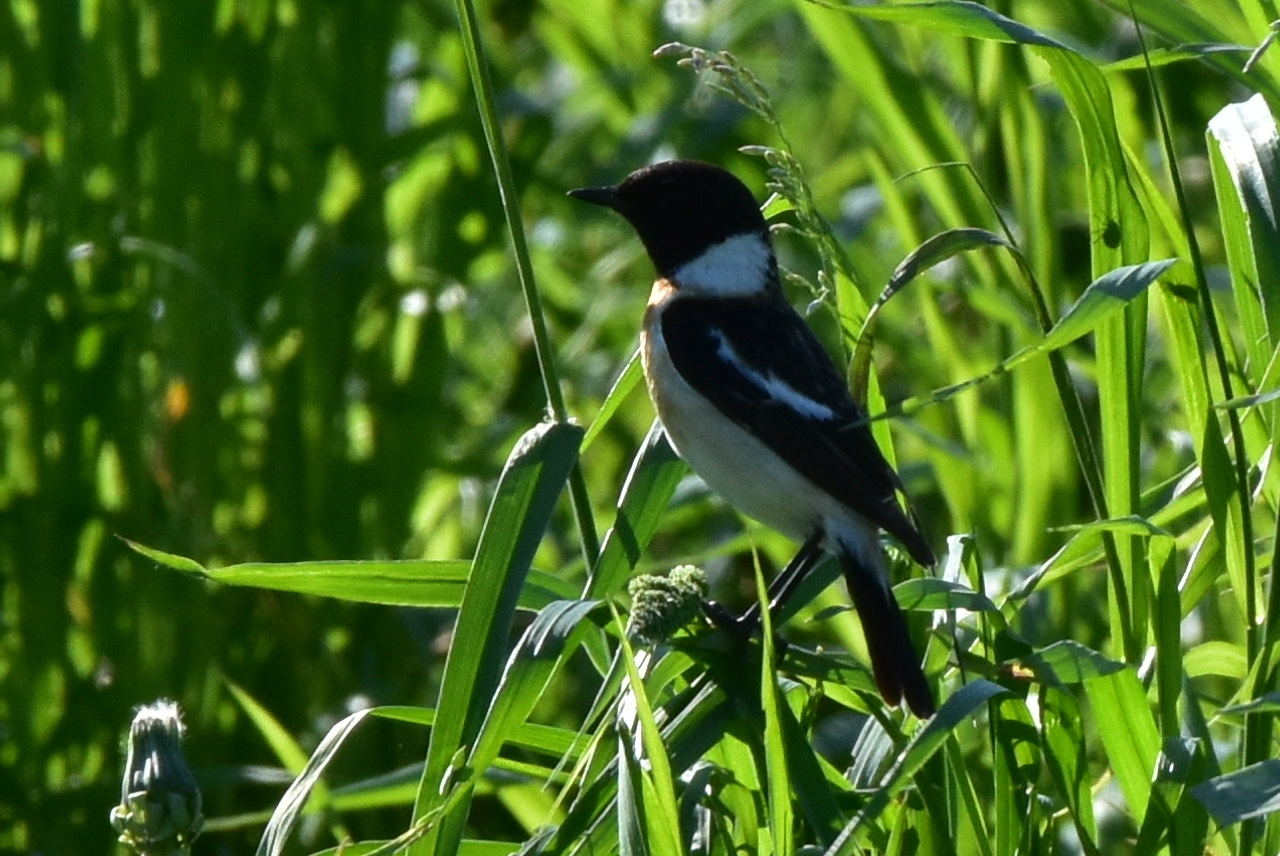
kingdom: Animalia
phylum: Chordata
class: Aves
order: Passeriformes
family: Muscicapidae
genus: Saxicola
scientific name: Saxicola maurus
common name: Siberian stonechat
